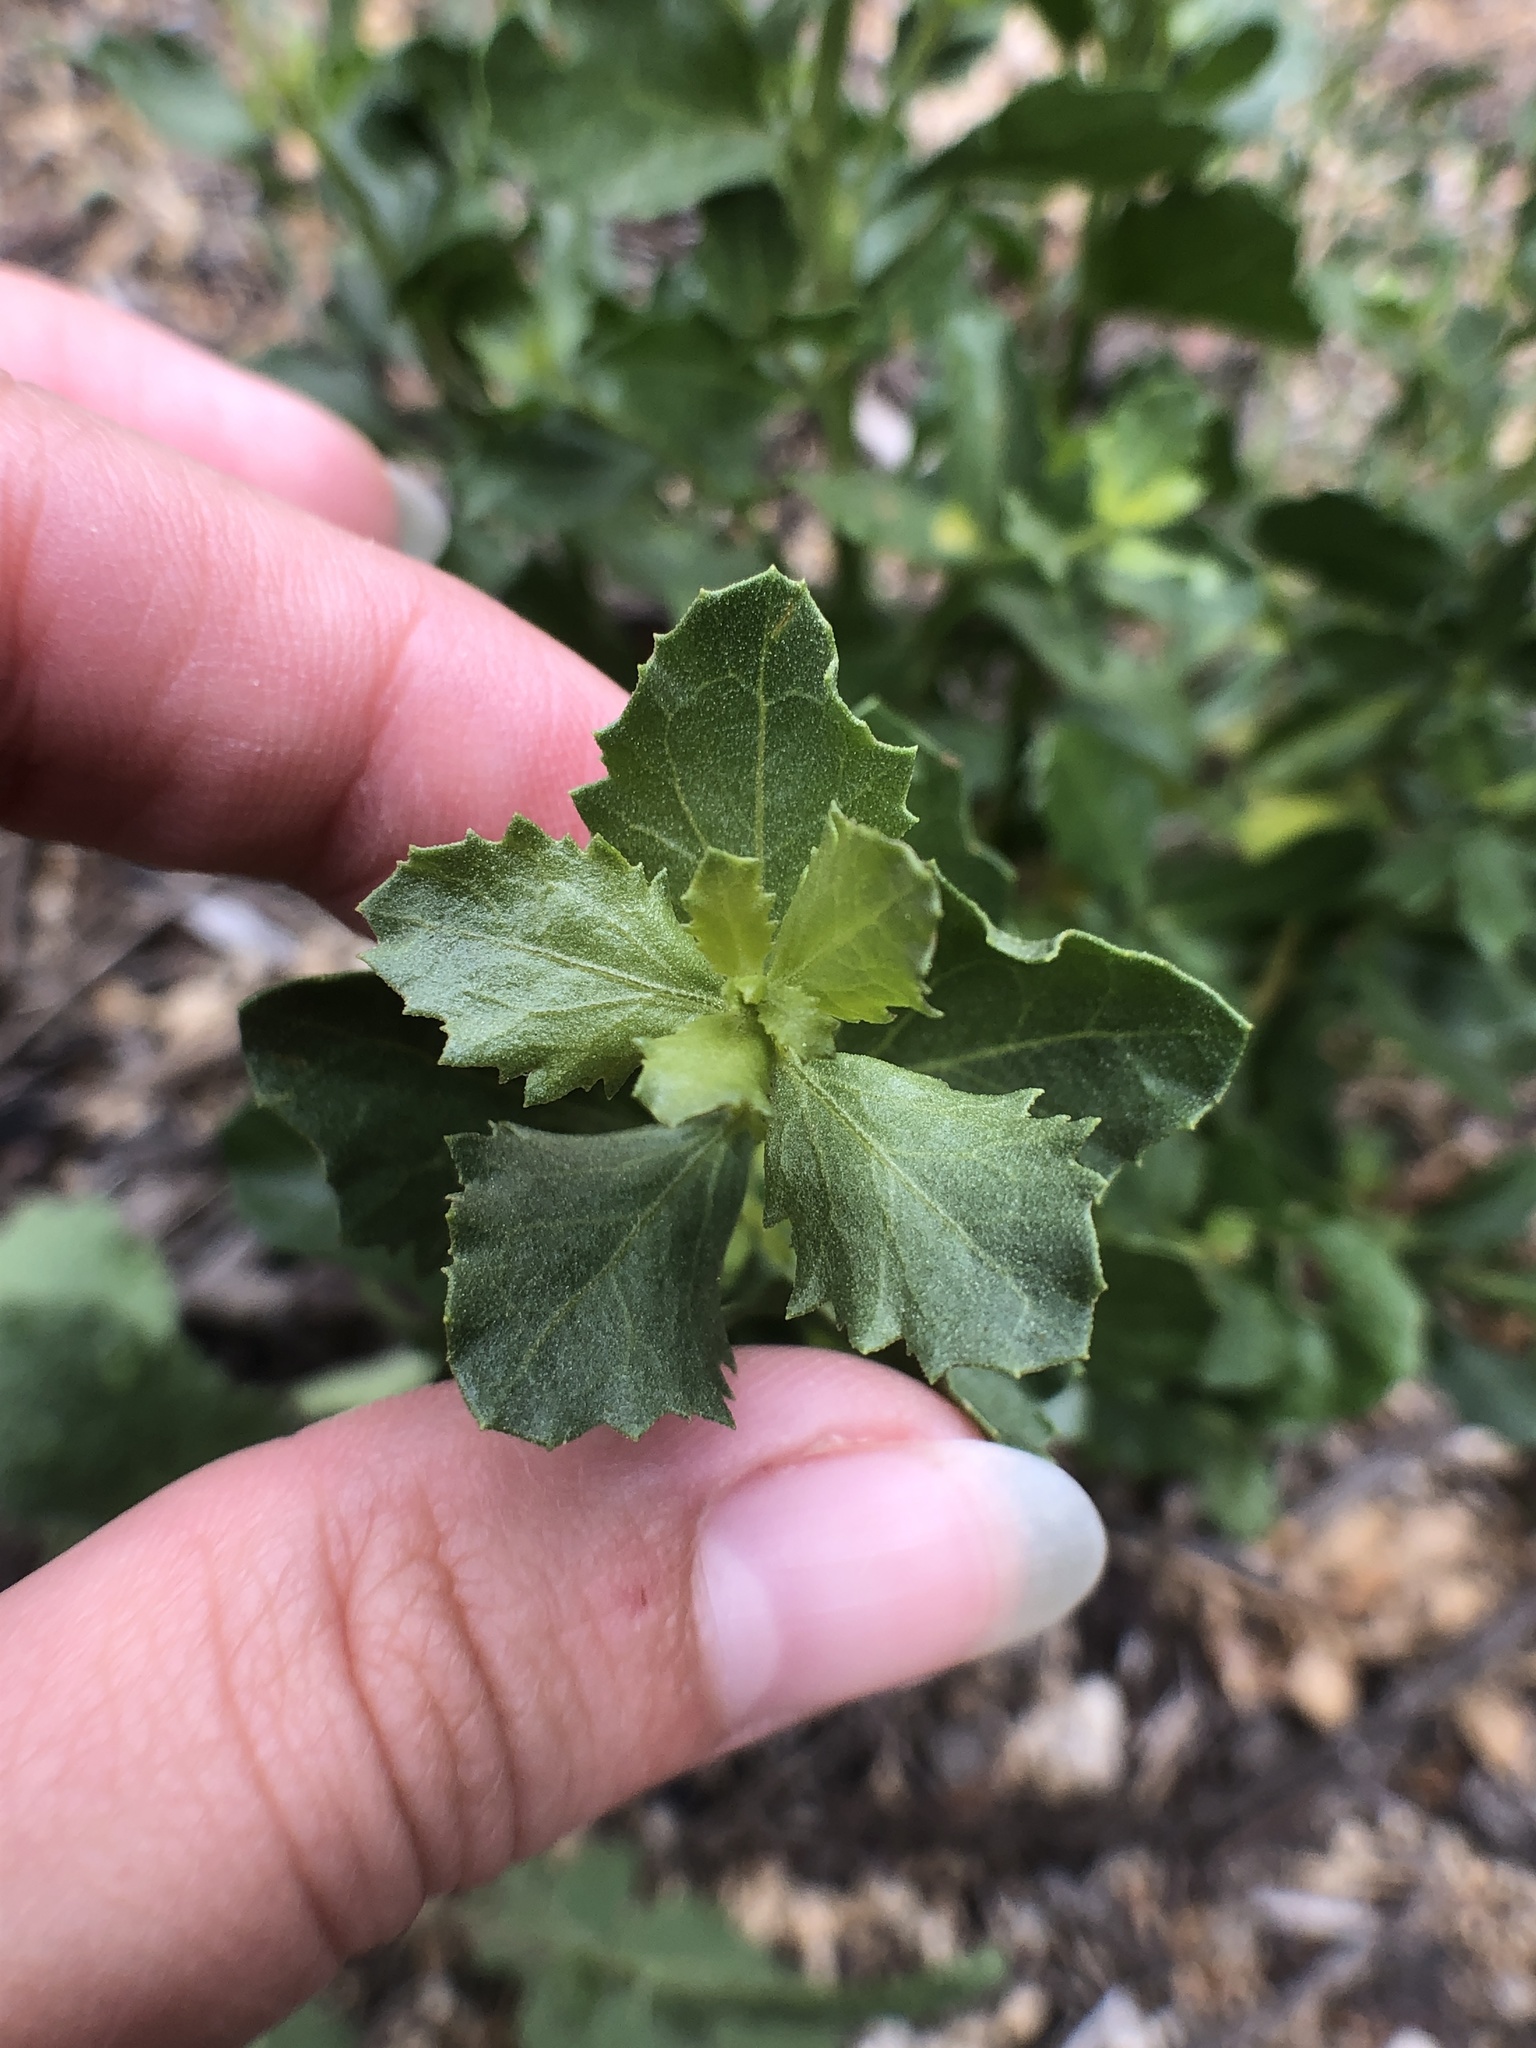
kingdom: Plantae
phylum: Tracheophyta
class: Magnoliopsida
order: Asterales
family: Asteraceae
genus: Baccharis
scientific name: Baccharis pilularis
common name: Coyotebrush
